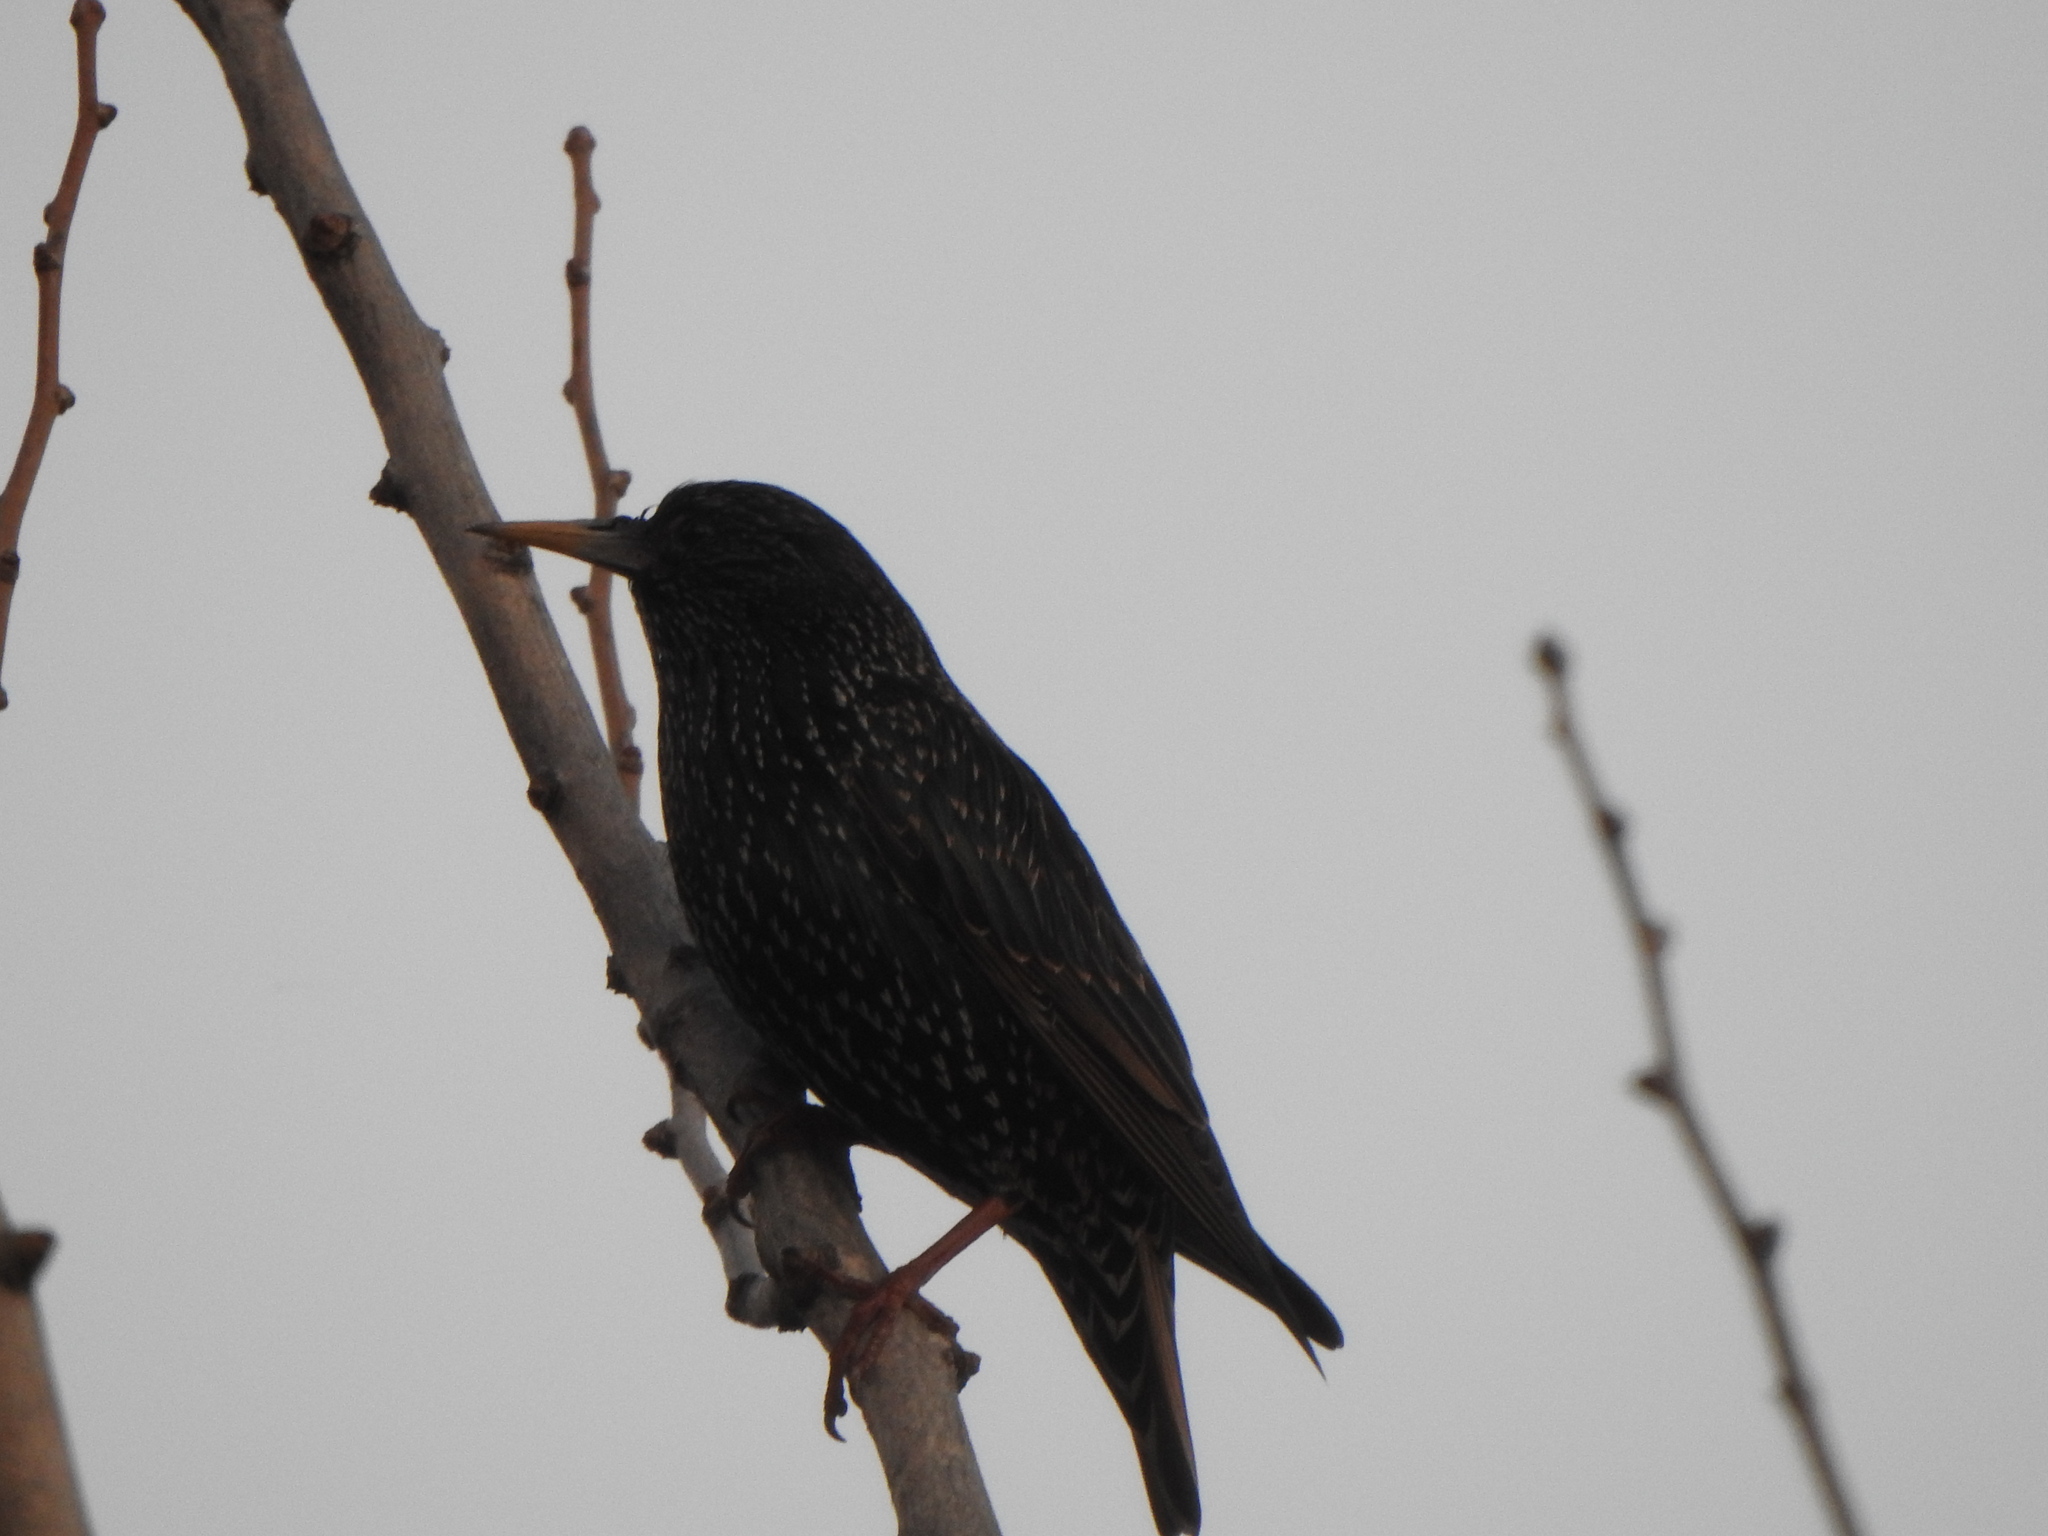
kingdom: Animalia
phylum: Chordata
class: Aves
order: Passeriformes
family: Sturnidae
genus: Sturnus
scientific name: Sturnus vulgaris
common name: Common starling
